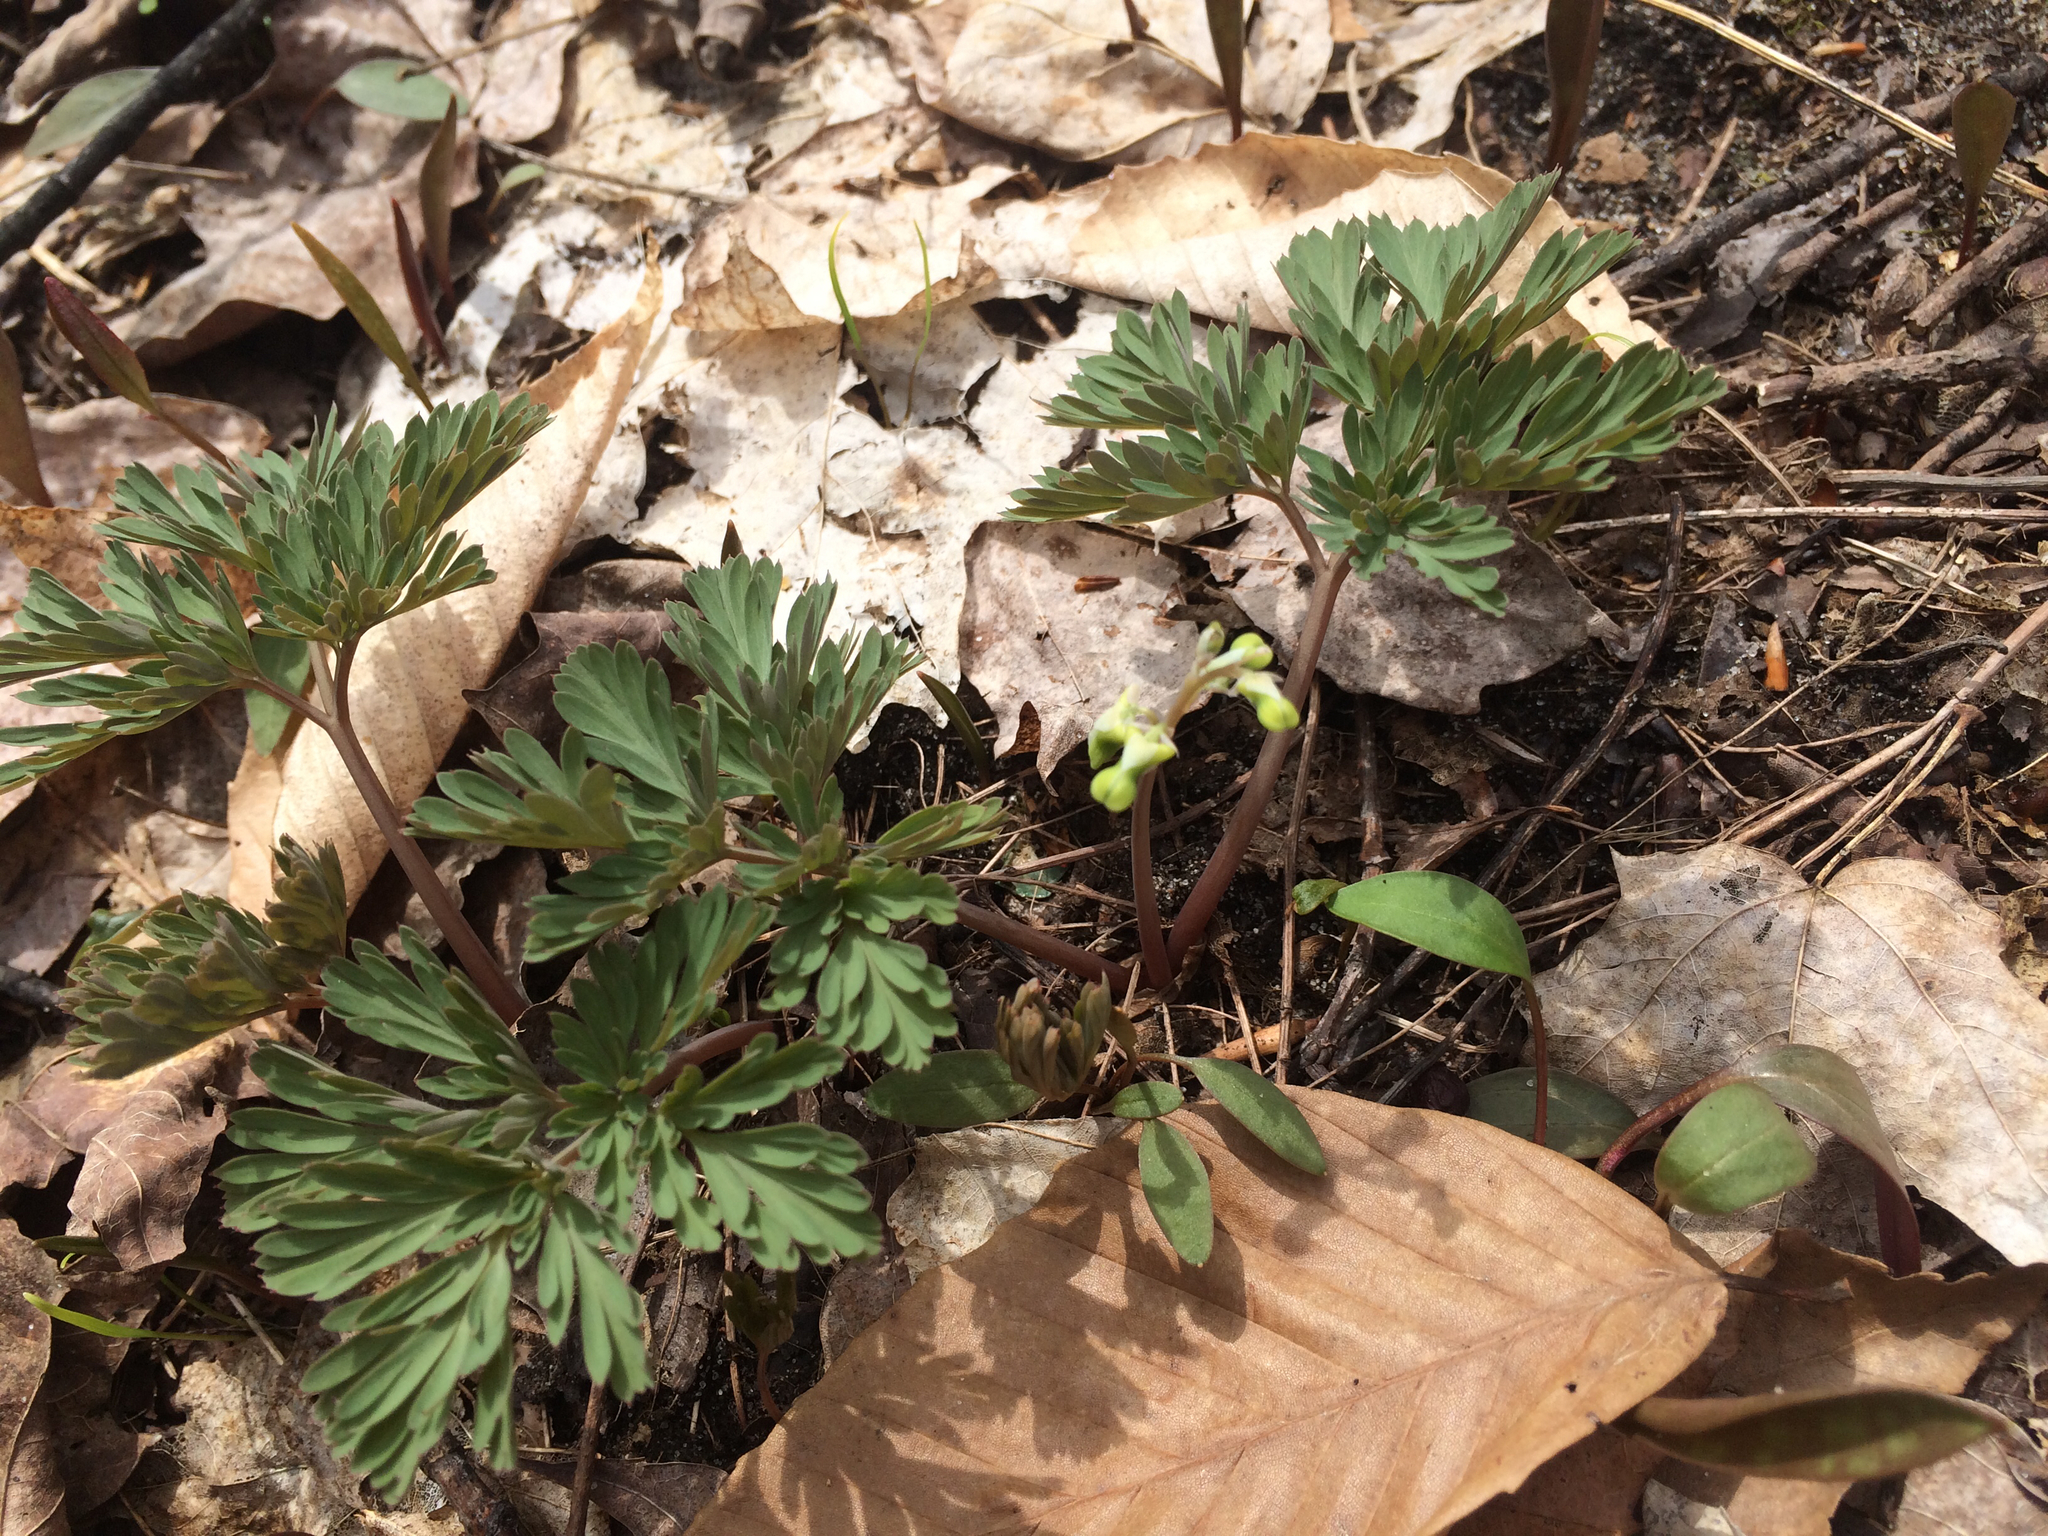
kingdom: Plantae
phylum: Tracheophyta
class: Magnoliopsida
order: Ranunculales
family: Papaveraceae
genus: Dicentra
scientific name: Dicentra cucullaria
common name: Dutchman's breeches
